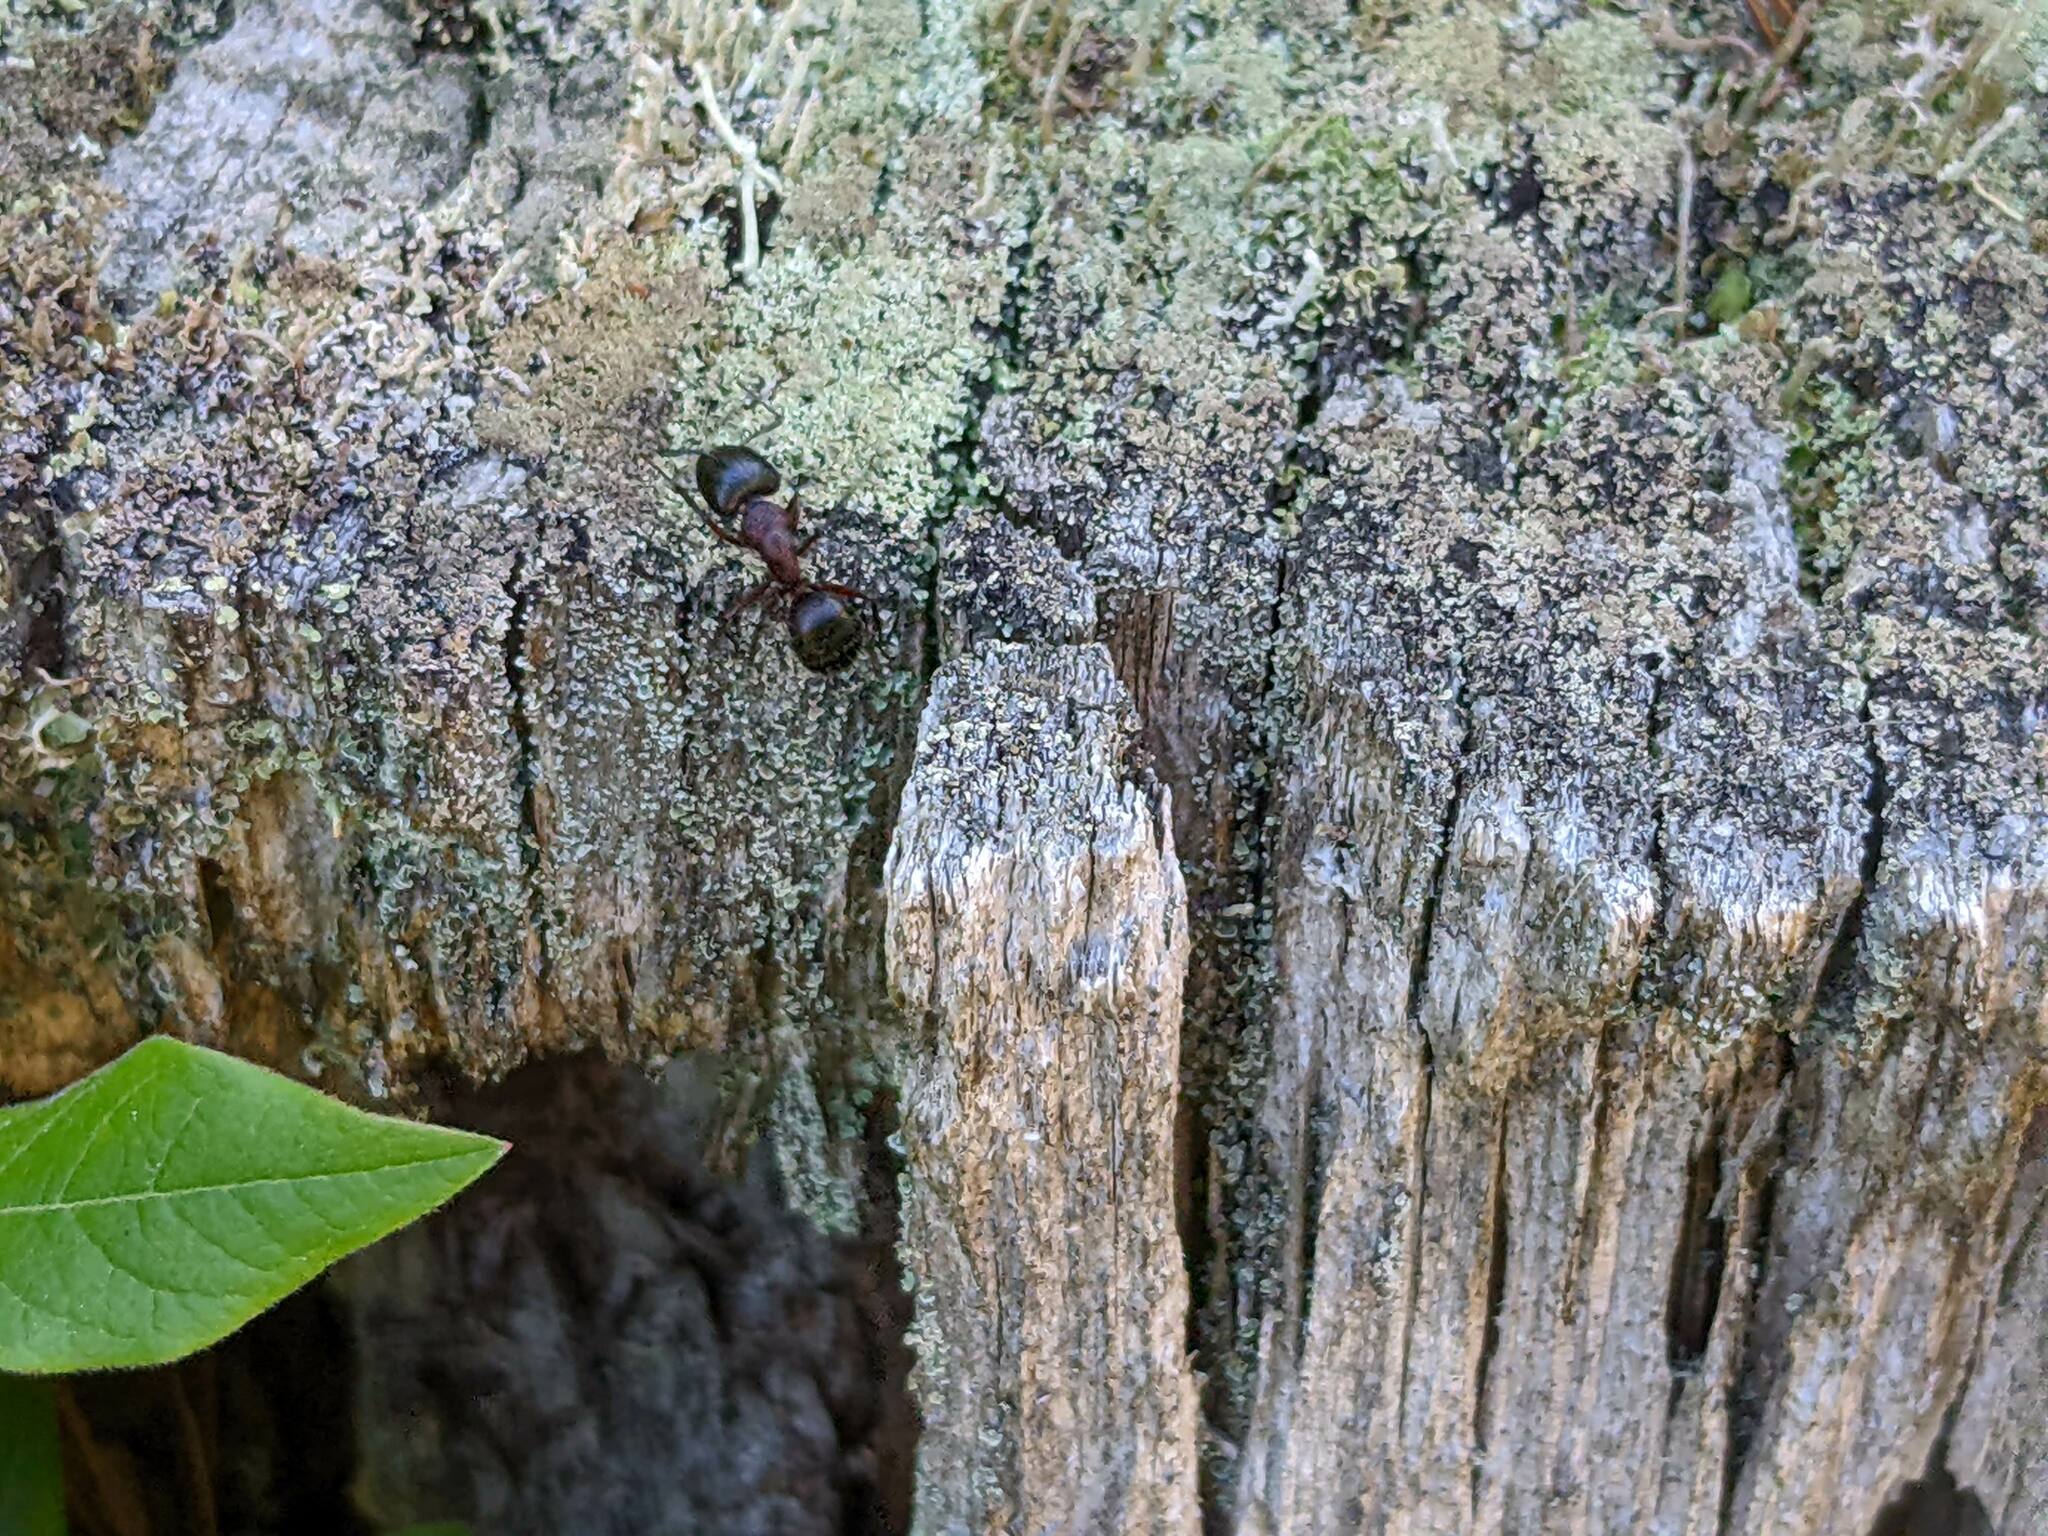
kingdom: Animalia
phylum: Arthropoda
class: Insecta
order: Hymenoptera
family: Formicidae
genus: Camponotus
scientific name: Camponotus novaeboracensis
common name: New york carpenter ant
